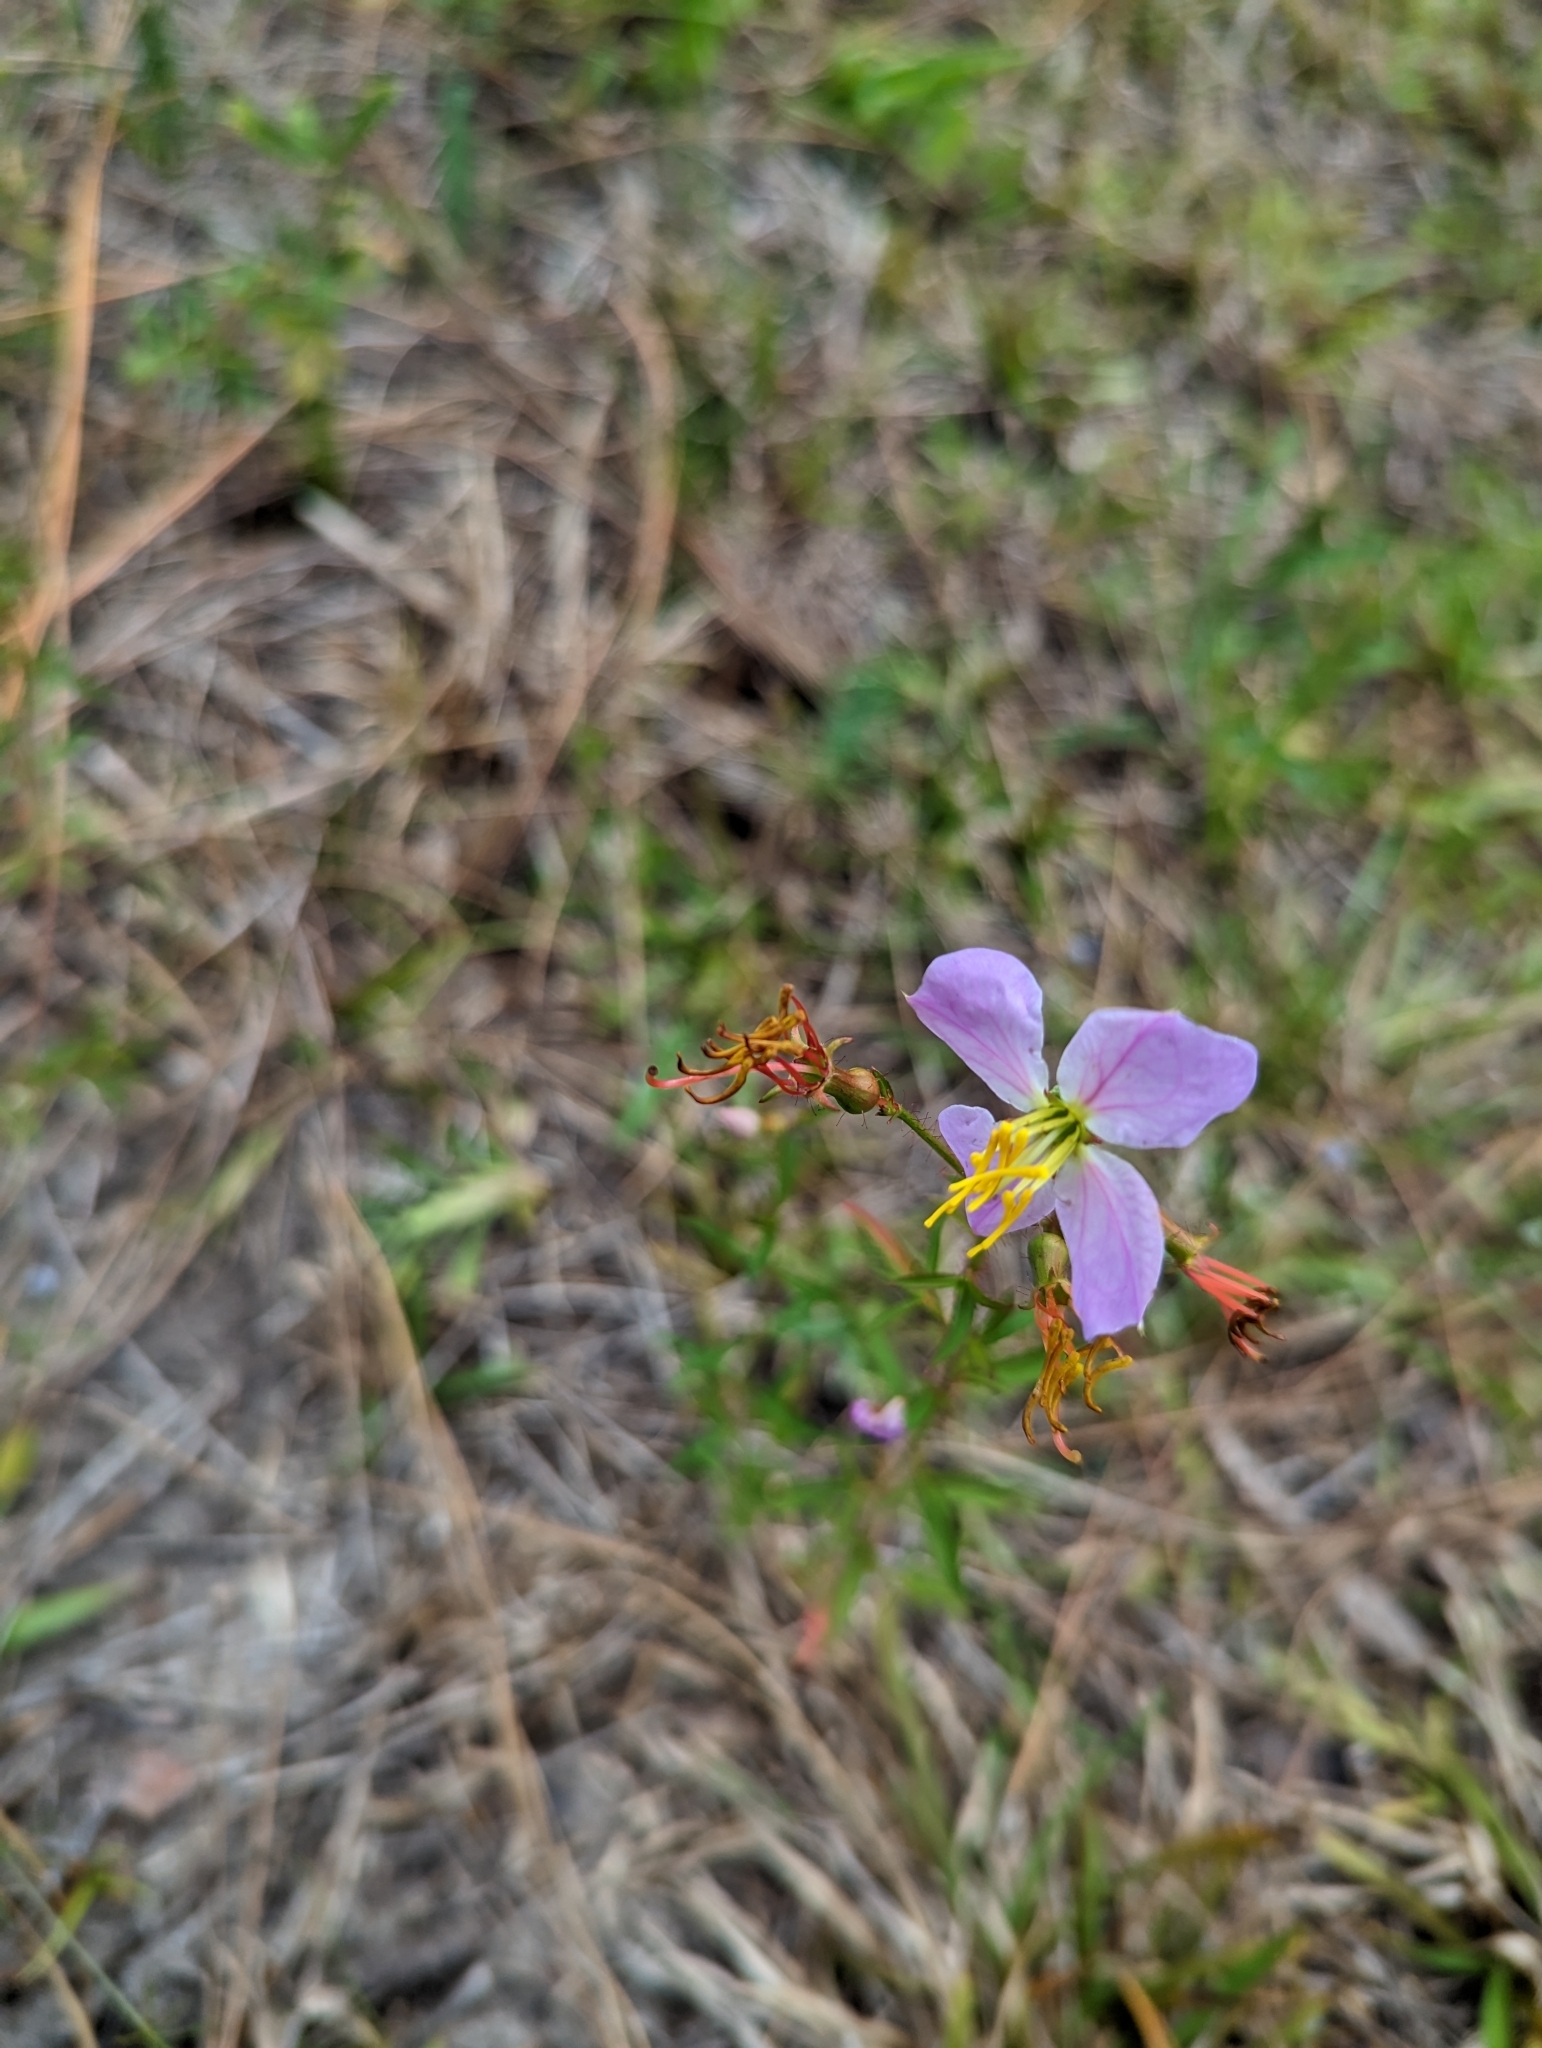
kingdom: Plantae
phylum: Tracheophyta
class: Magnoliopsida
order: Myrtales
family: Melastomataceae
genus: Rhexia
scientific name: Rhexia mariana
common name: Dull meadow-pitcher
